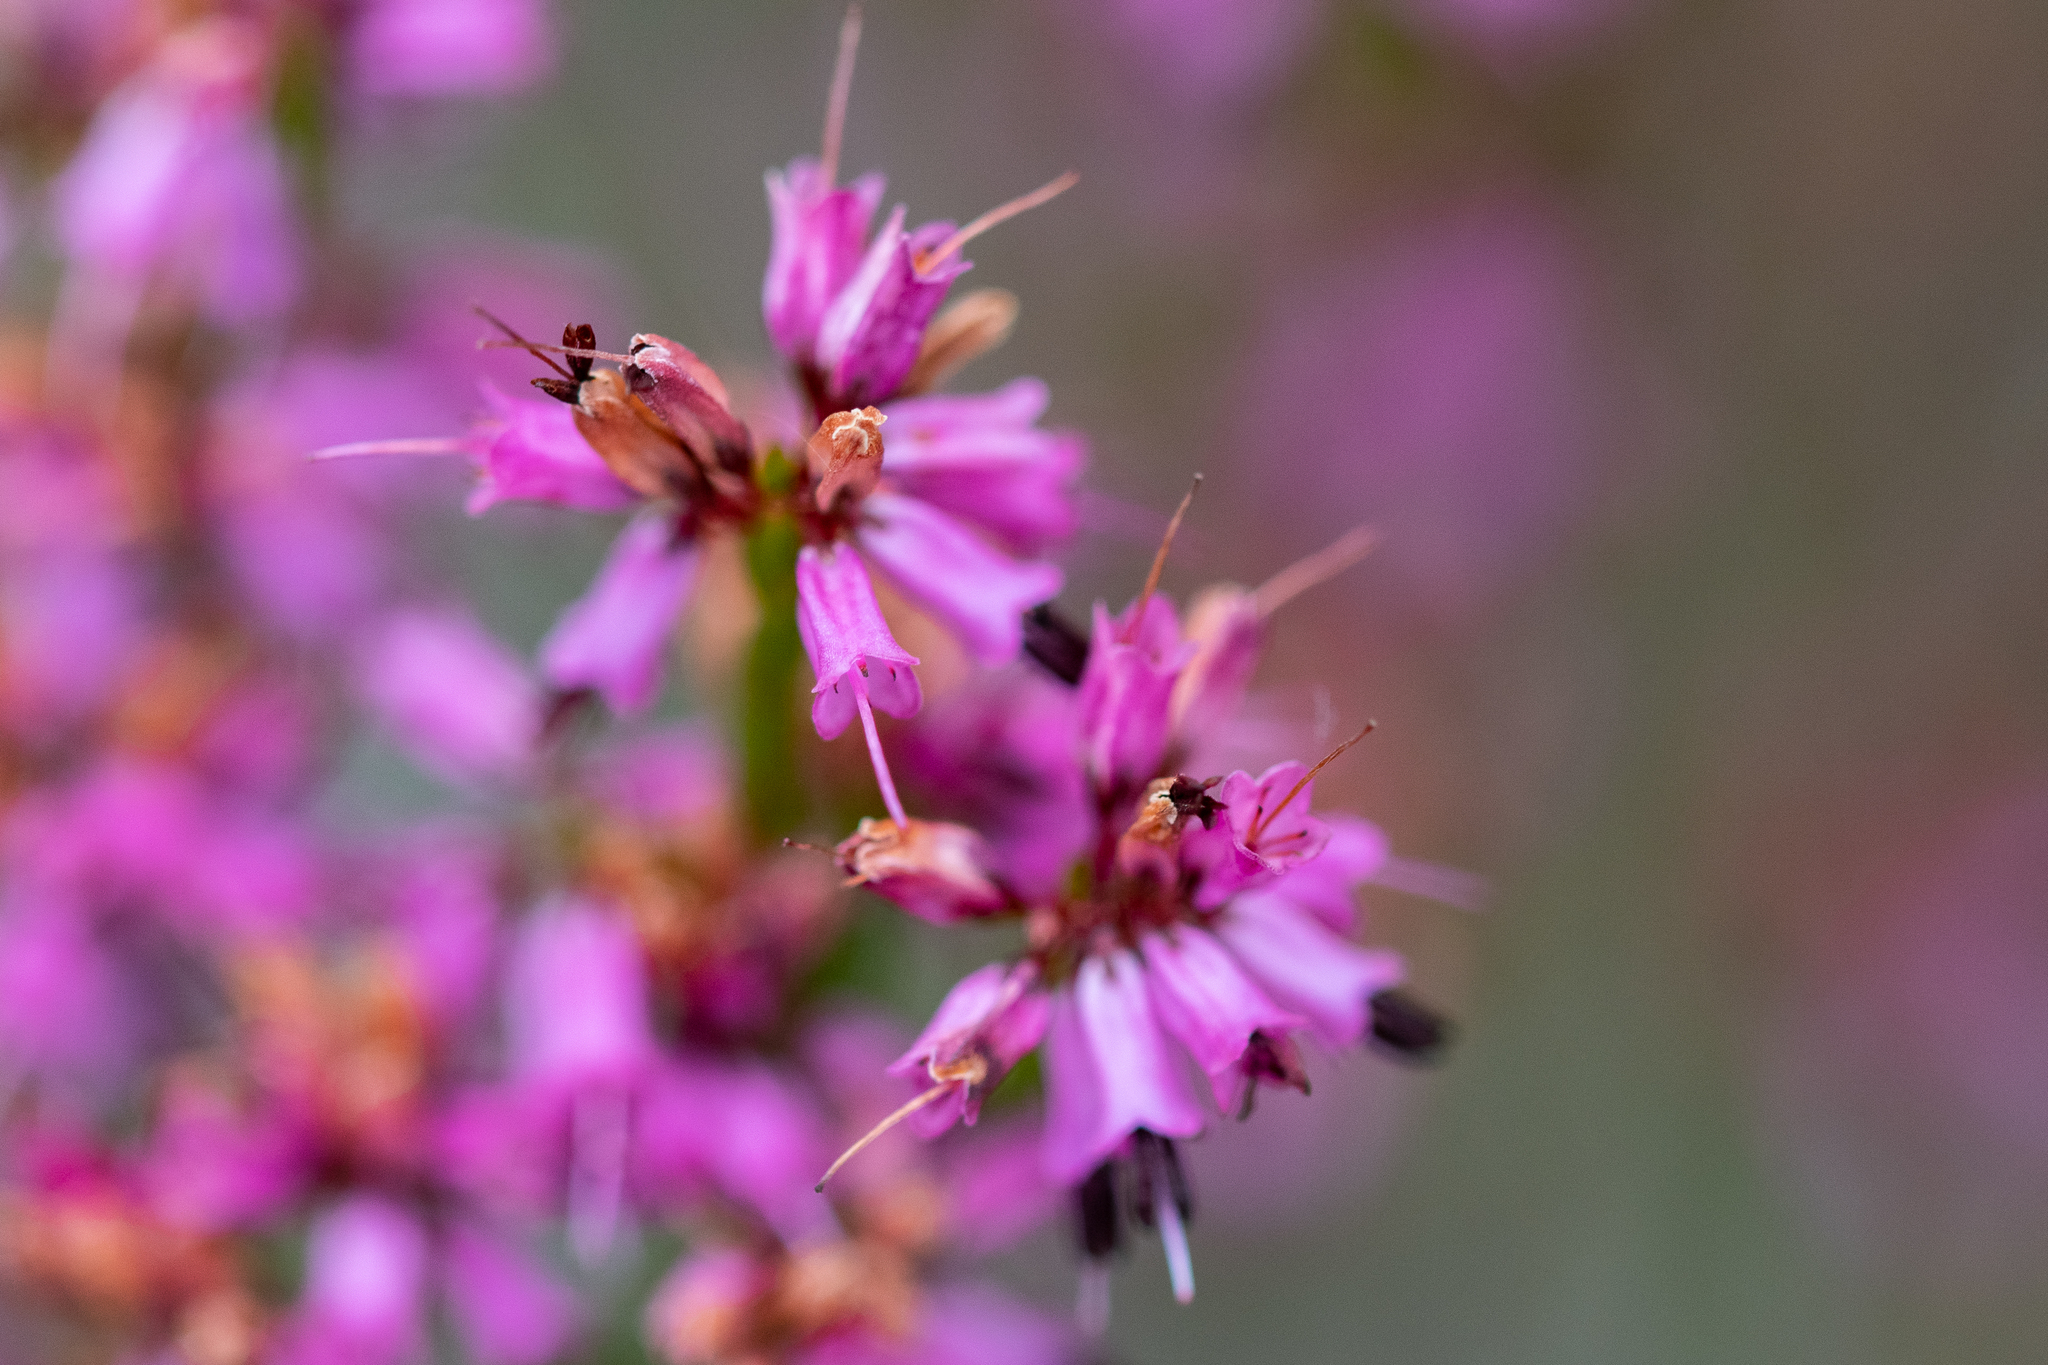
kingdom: Plantae
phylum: Tracheophyta
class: Magnoliopsida
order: Ericales
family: Ericaceae
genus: Erica
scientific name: Erica equisetifolia
